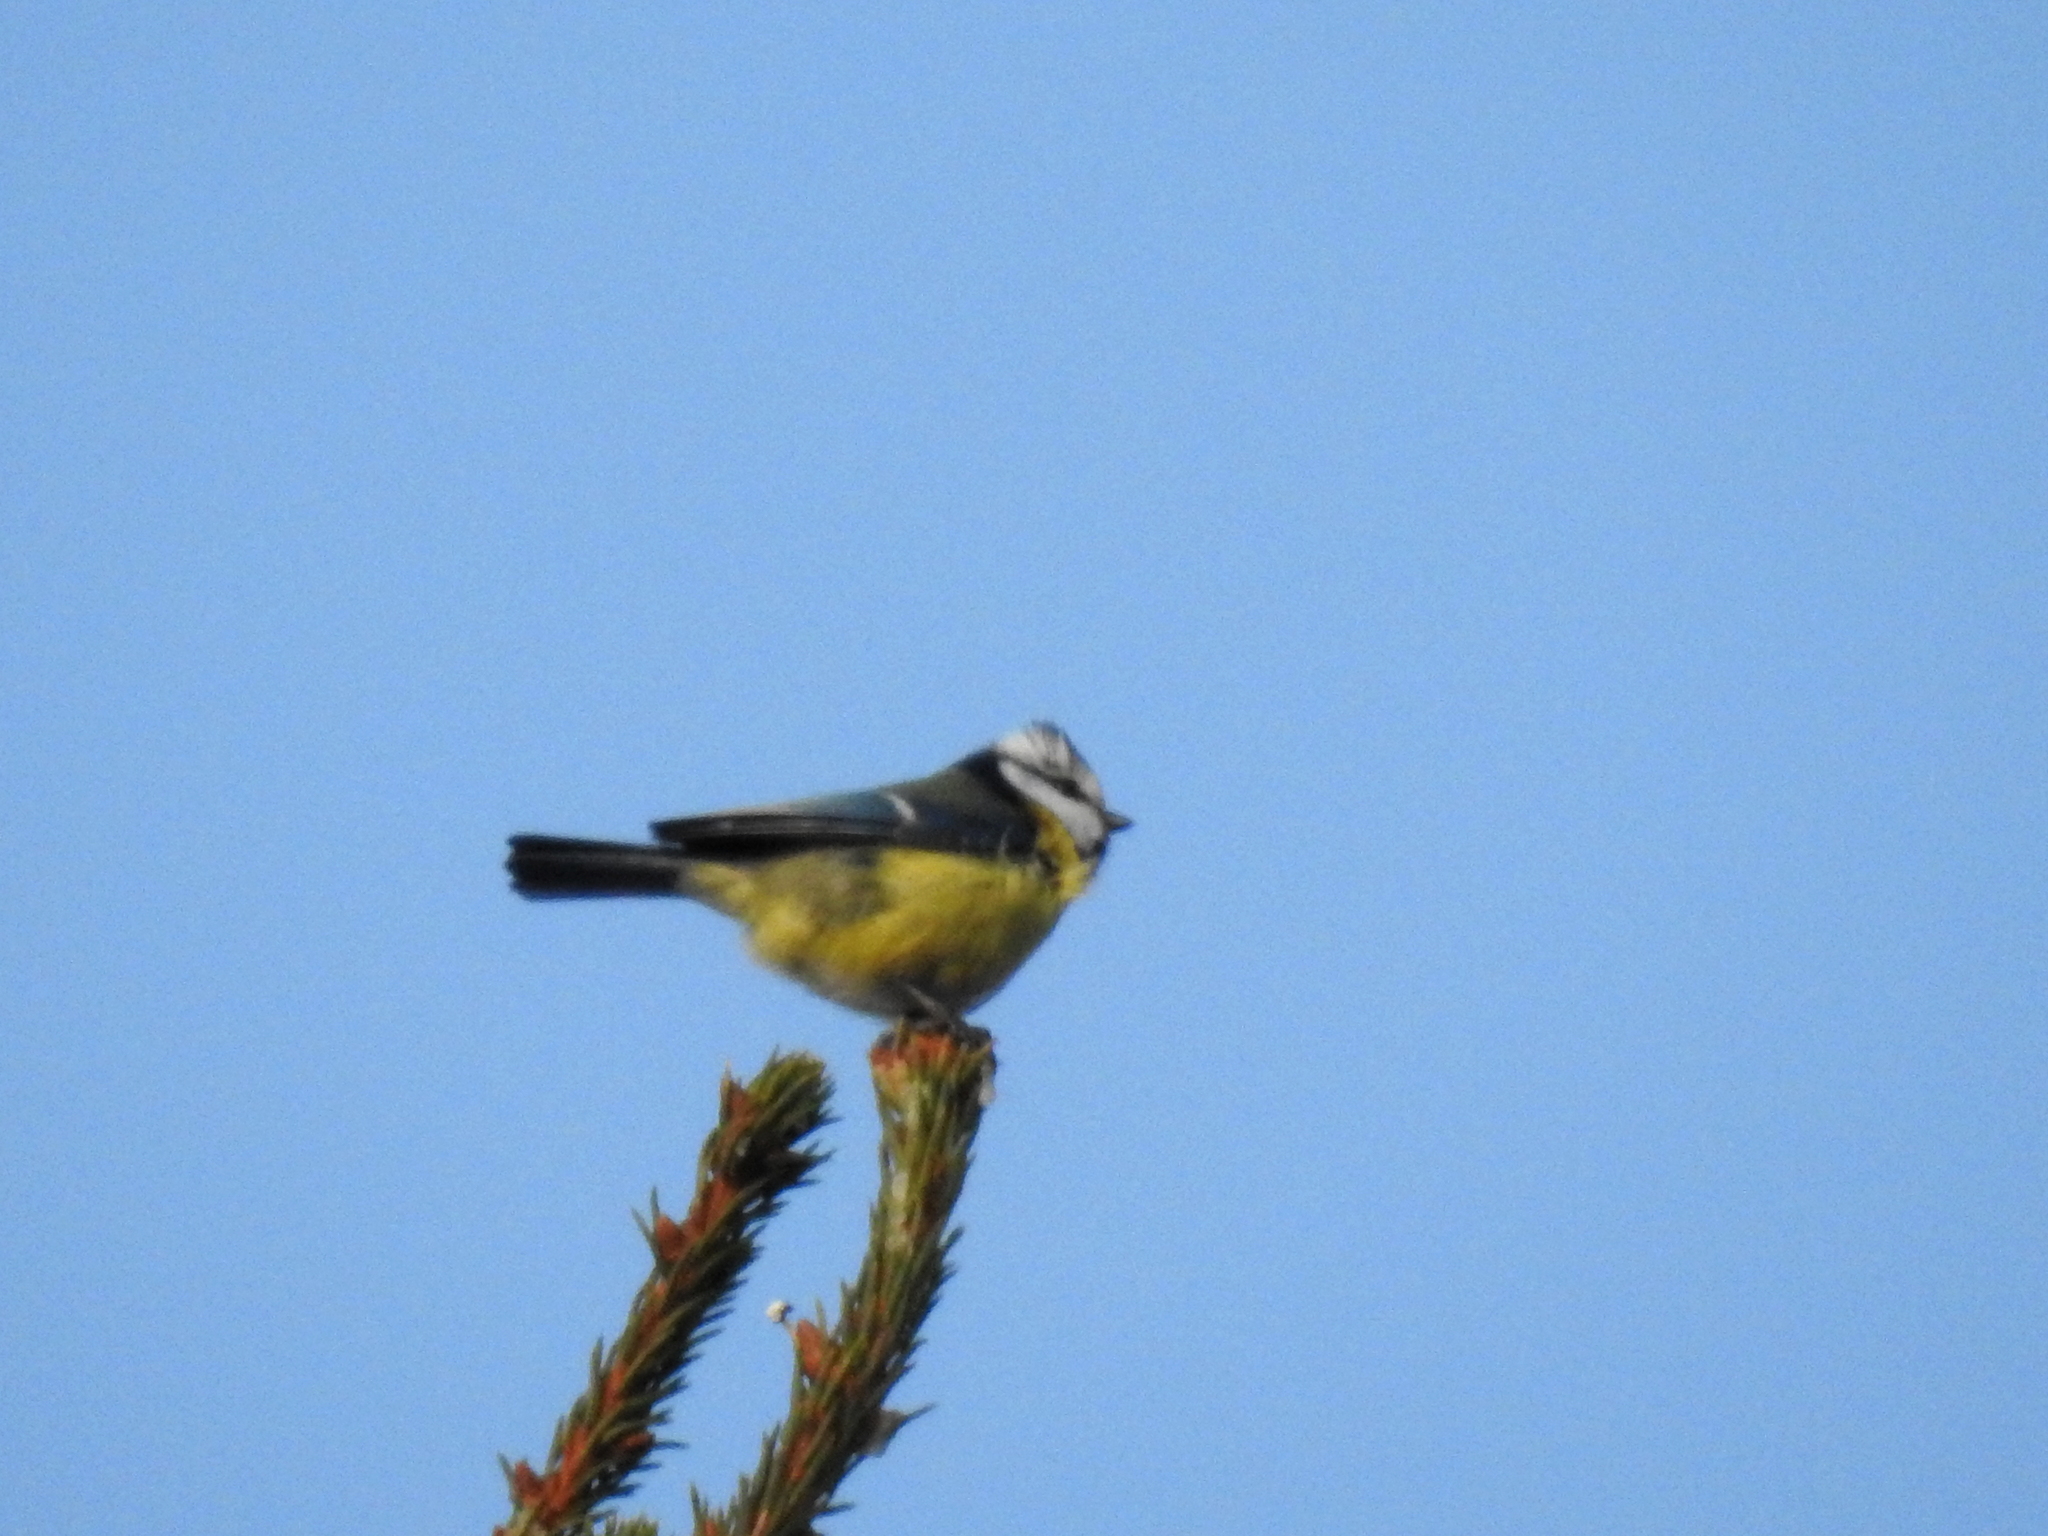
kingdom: Animalia
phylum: Chordata
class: Aves
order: Passeriformes
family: Paridae
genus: Cyanistes
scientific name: Cyanistes caeruleus
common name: Eurasian blue tit
